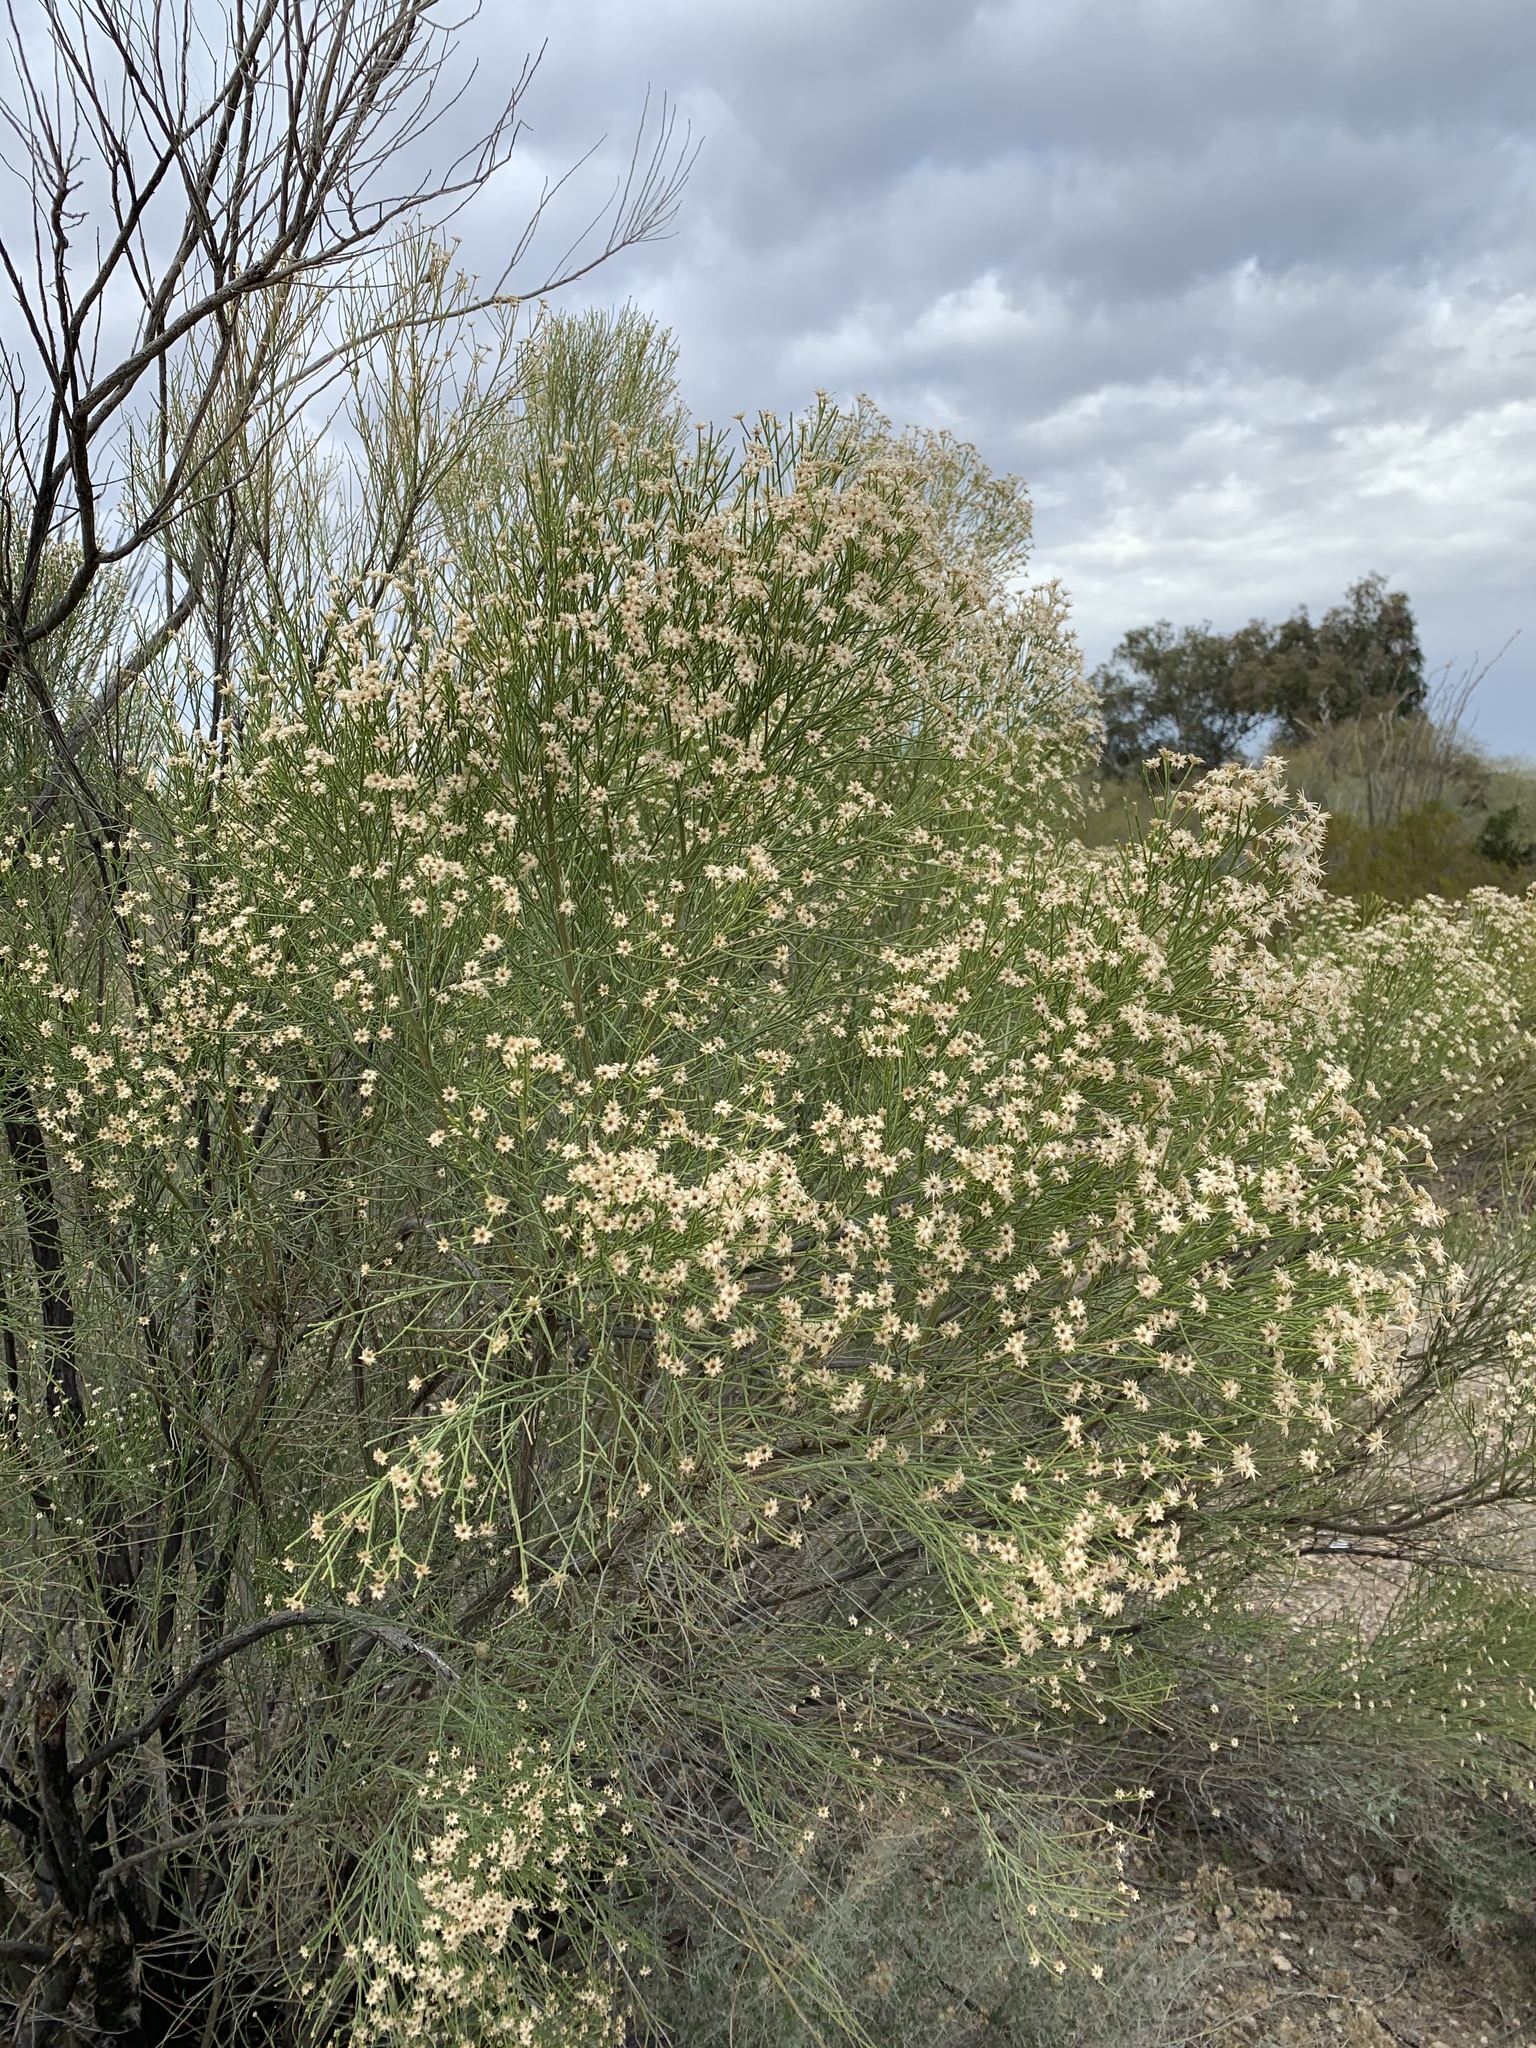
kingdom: Plantae
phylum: Tracheophyta
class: Magnoliopsida
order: Asterales
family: Asteraceae
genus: Baccharis
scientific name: Baccharis sarothroides
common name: Desert-broom
